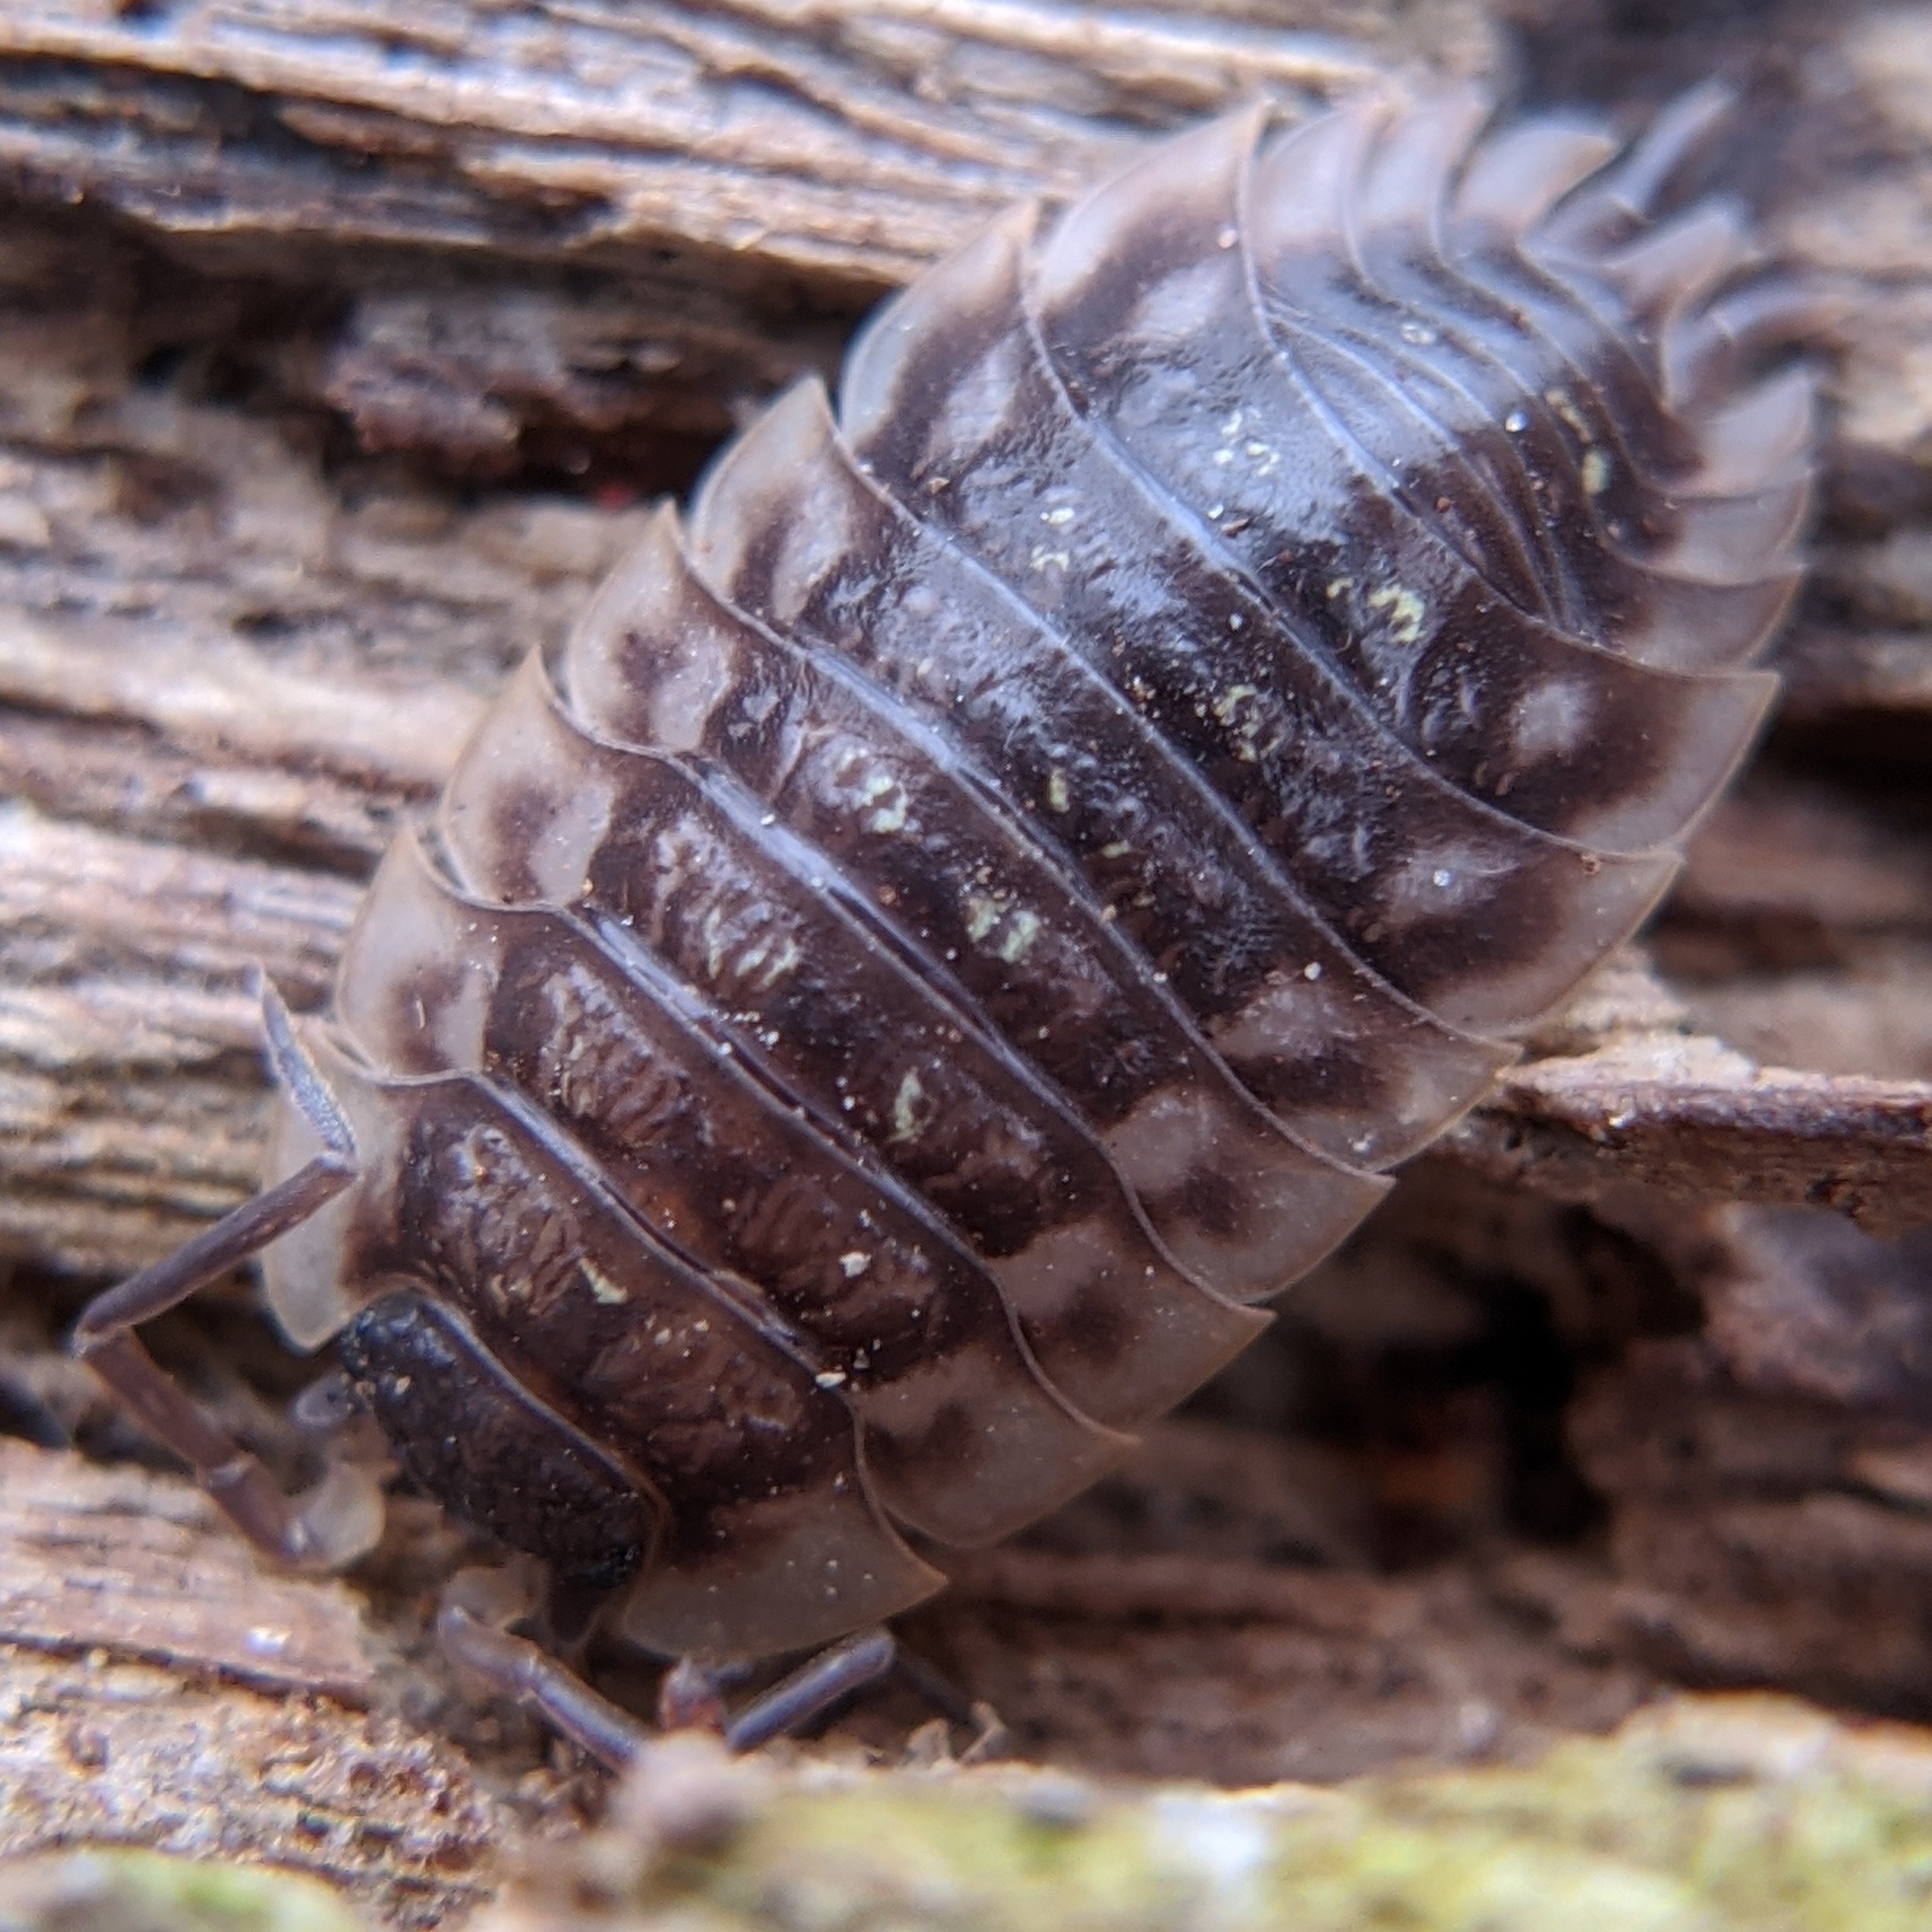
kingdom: Animalia
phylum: Arthropoda
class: Malacostraca
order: Isopoda
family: Oniscidae
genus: Oniscus
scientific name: Oniscus asellus
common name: Common shiny woodlouse
